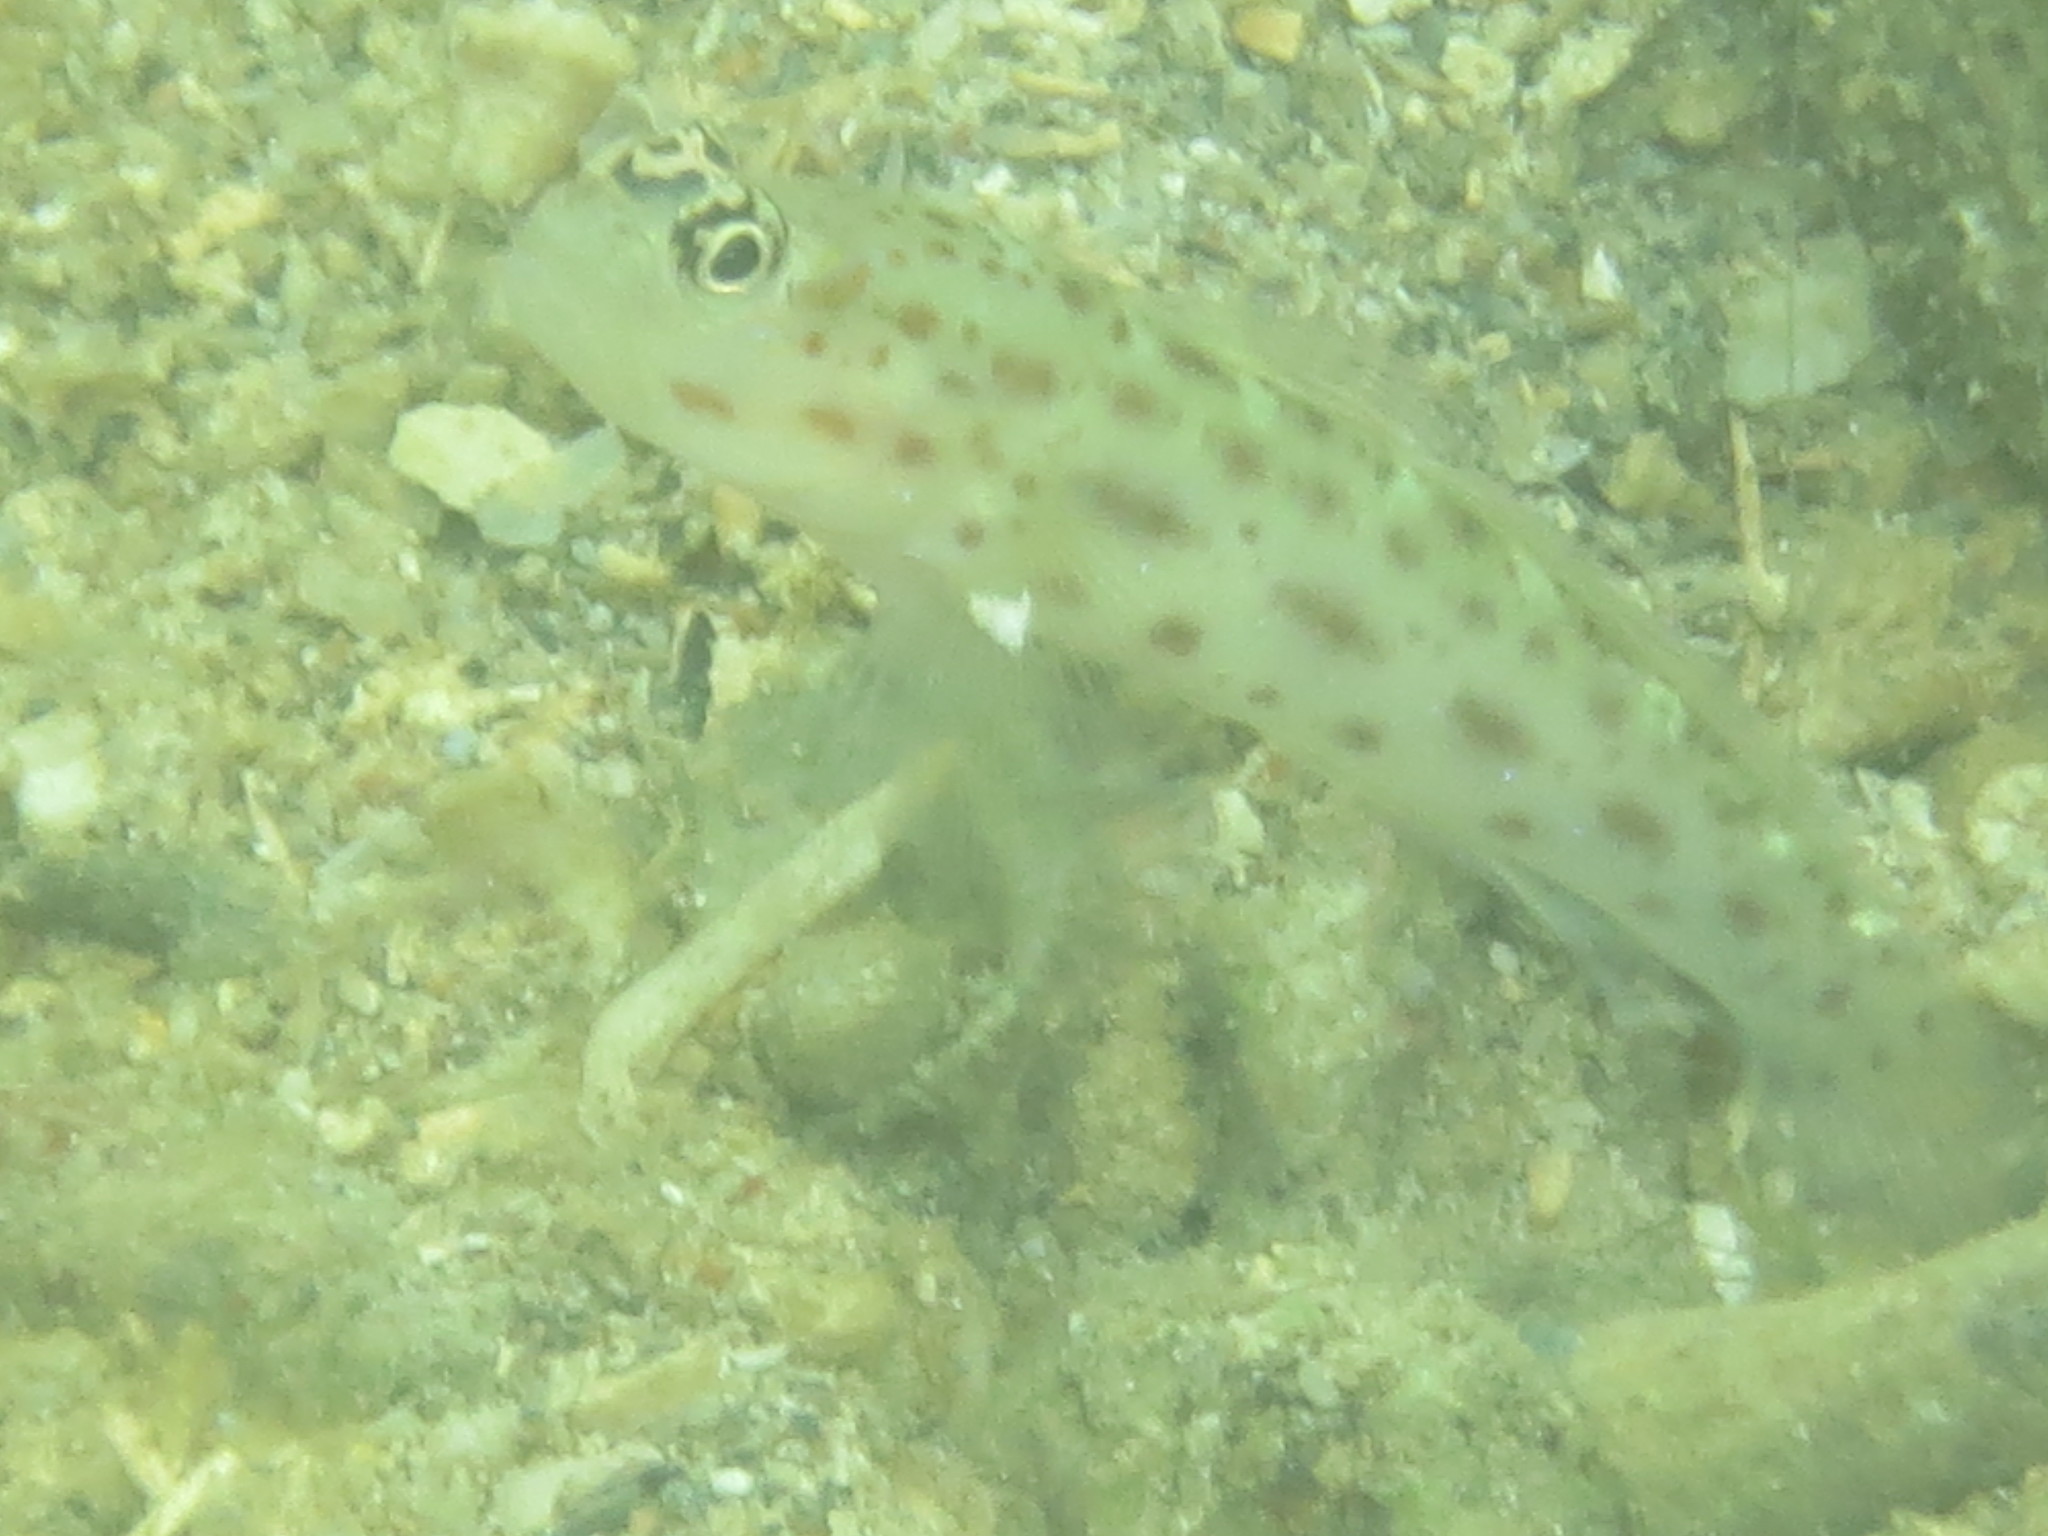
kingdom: Animalia
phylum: Chordata
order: Perciformes
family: Gobiidae
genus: Ctenogobiops
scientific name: Ctenogobiops mitodes
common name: Thread shrimpgoby
